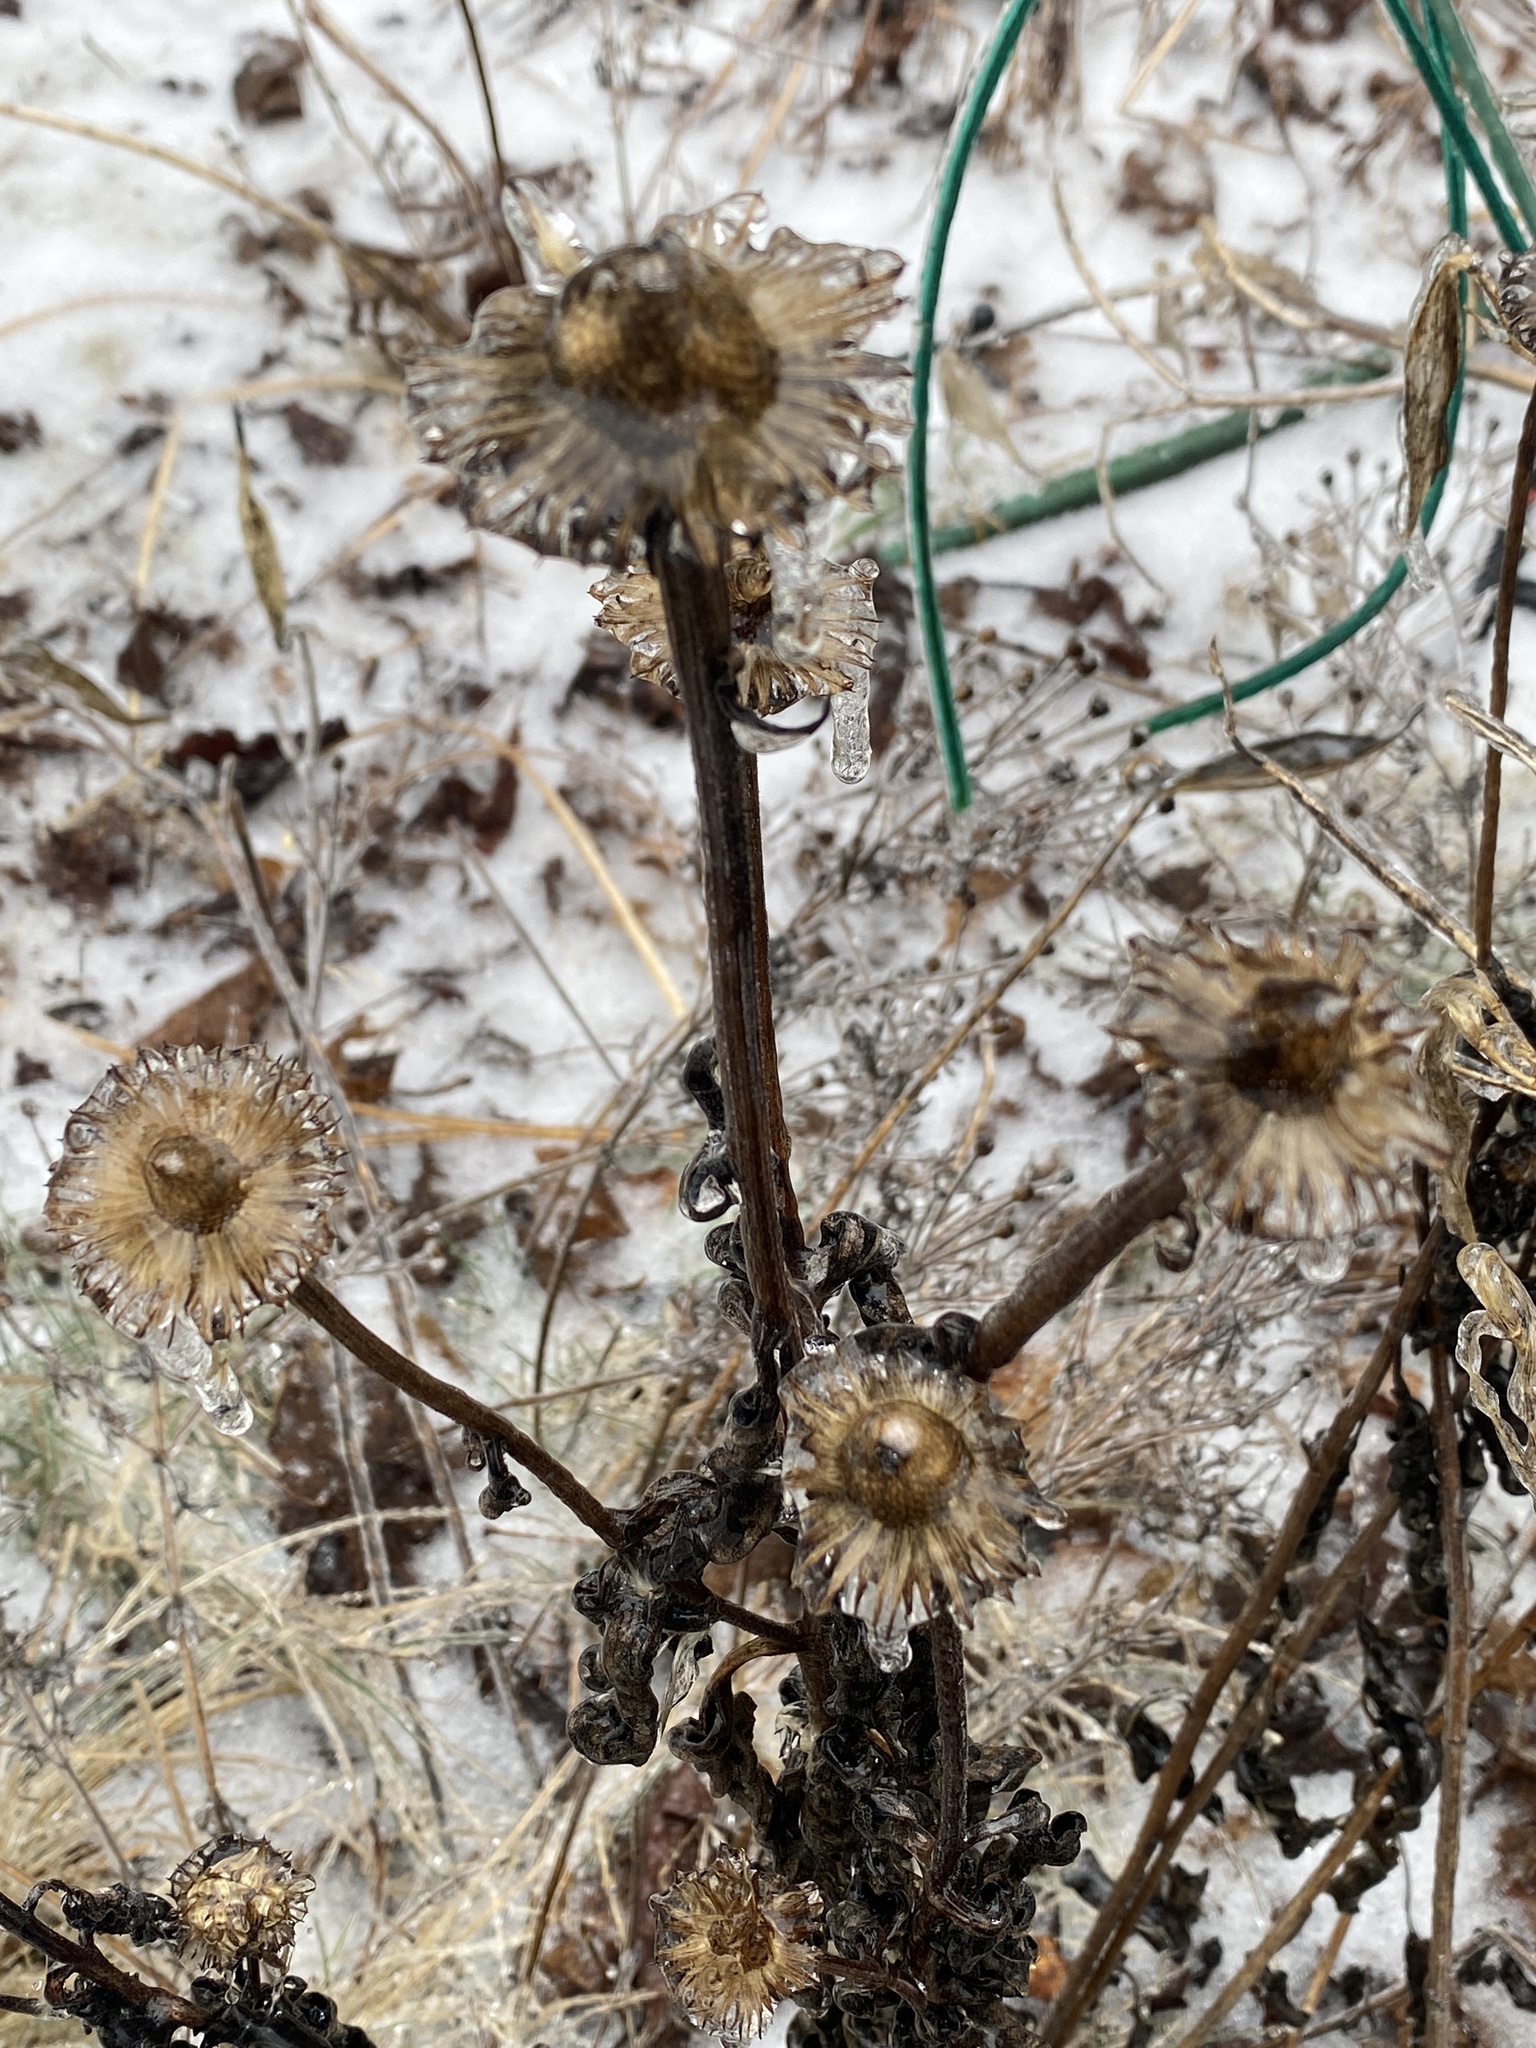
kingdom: Plantae
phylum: Tracheophyta
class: Magnoliopsida
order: Asterales
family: Asteraceae
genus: Echinacea
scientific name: Echinacea purpurea
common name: Broad-leaved purple coneflower
